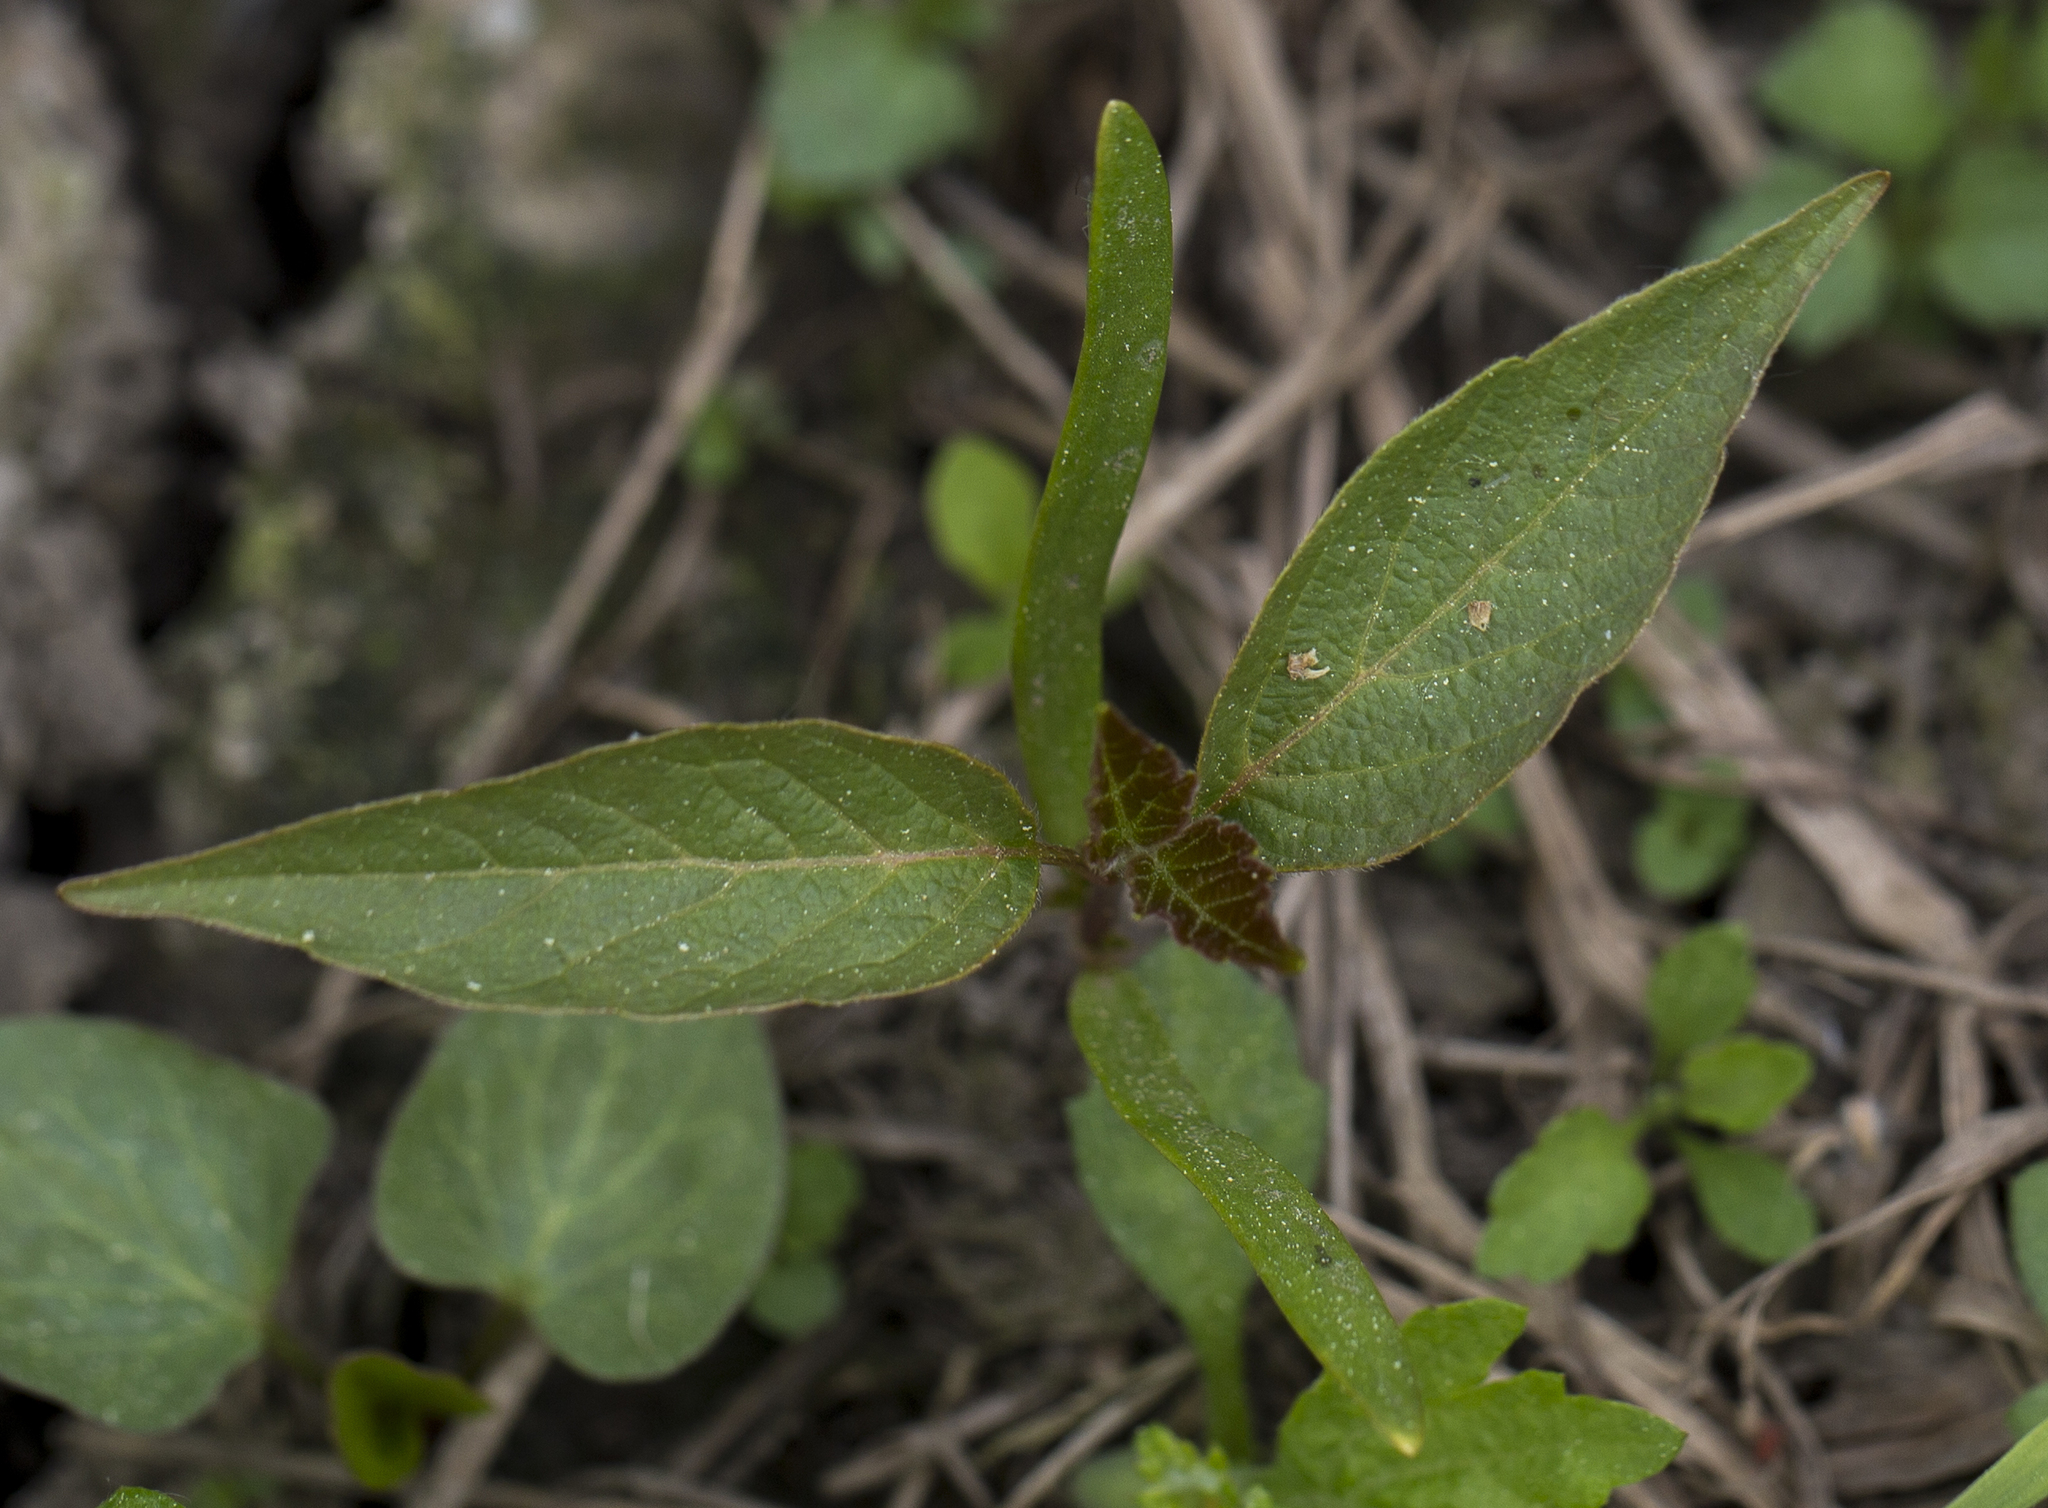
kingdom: Plantae
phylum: Tracheophyta
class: Magnoliopsida
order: Sapindales
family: Sapindaceae
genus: Acer
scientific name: Acer negundo
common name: Ashleaf maple
